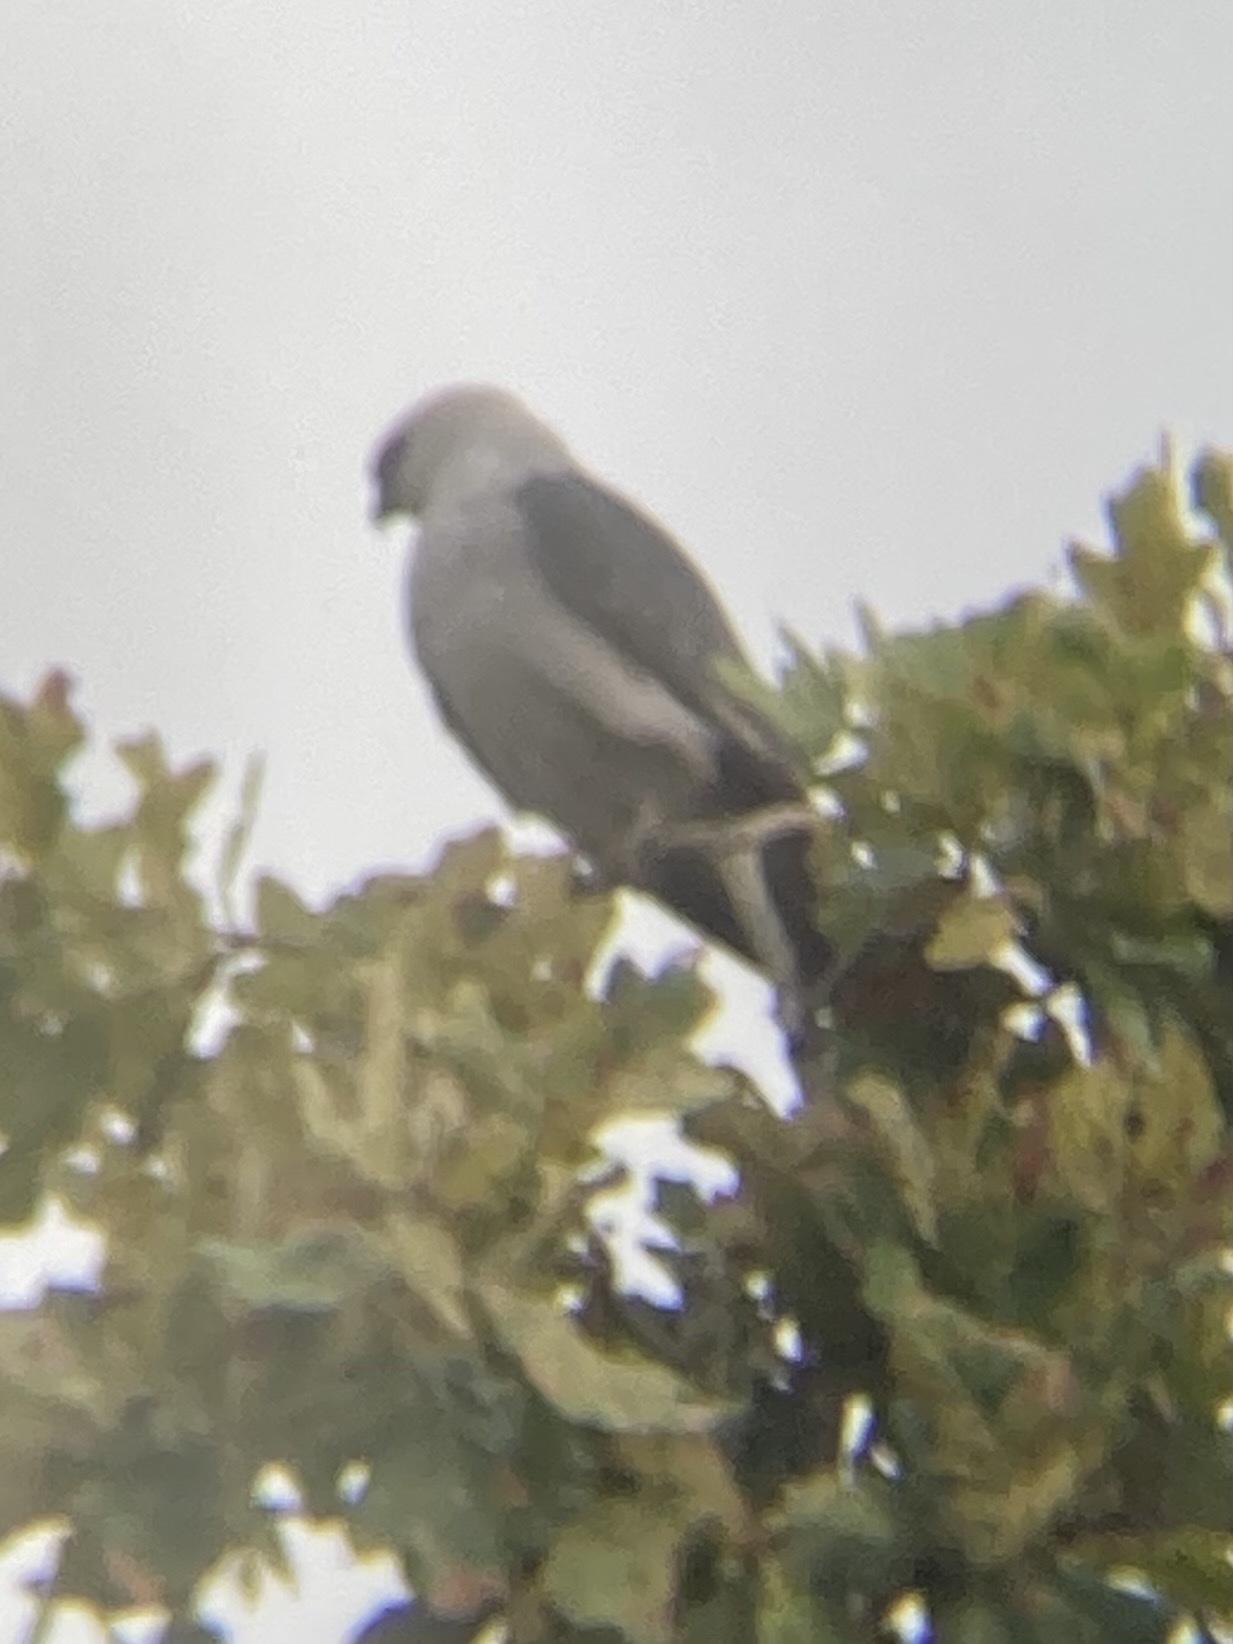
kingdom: Animalia
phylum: Chordata
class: Aves
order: Accipitriformes
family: Accipitridae
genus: Ictinia
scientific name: Ictinia mississippiensis
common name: Mississippi kite
